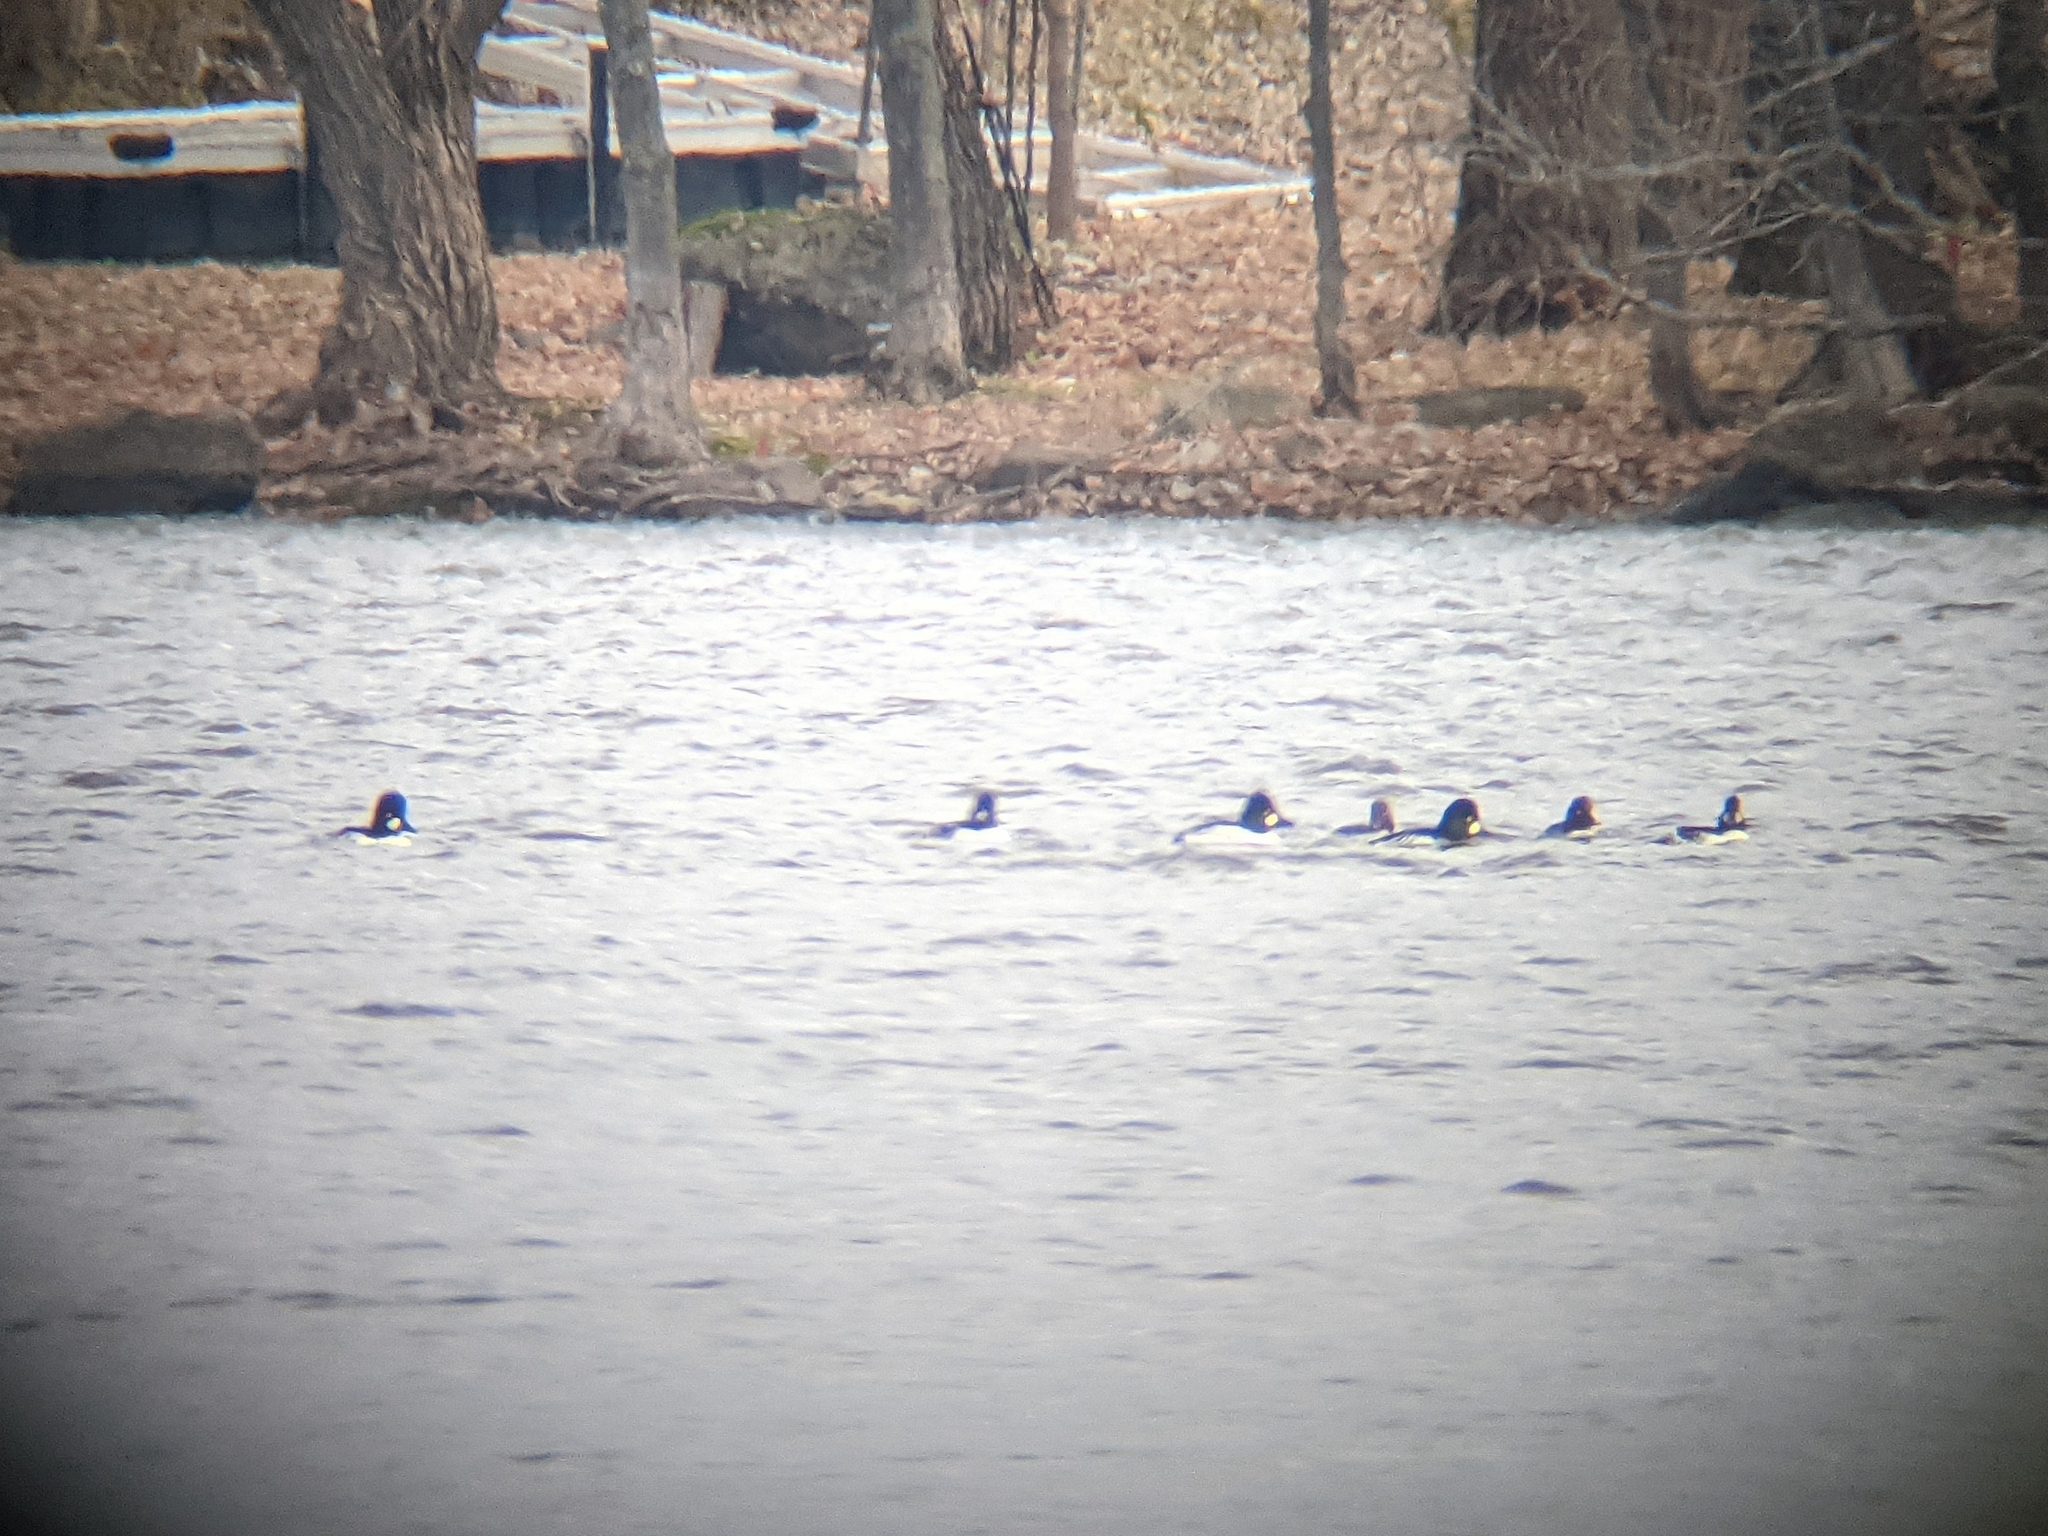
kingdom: Animalia
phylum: Chordata
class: Aves
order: Anseriformes
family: Anatidae
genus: Bucephala
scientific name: Bucephala clangula
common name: Common goldeneye
